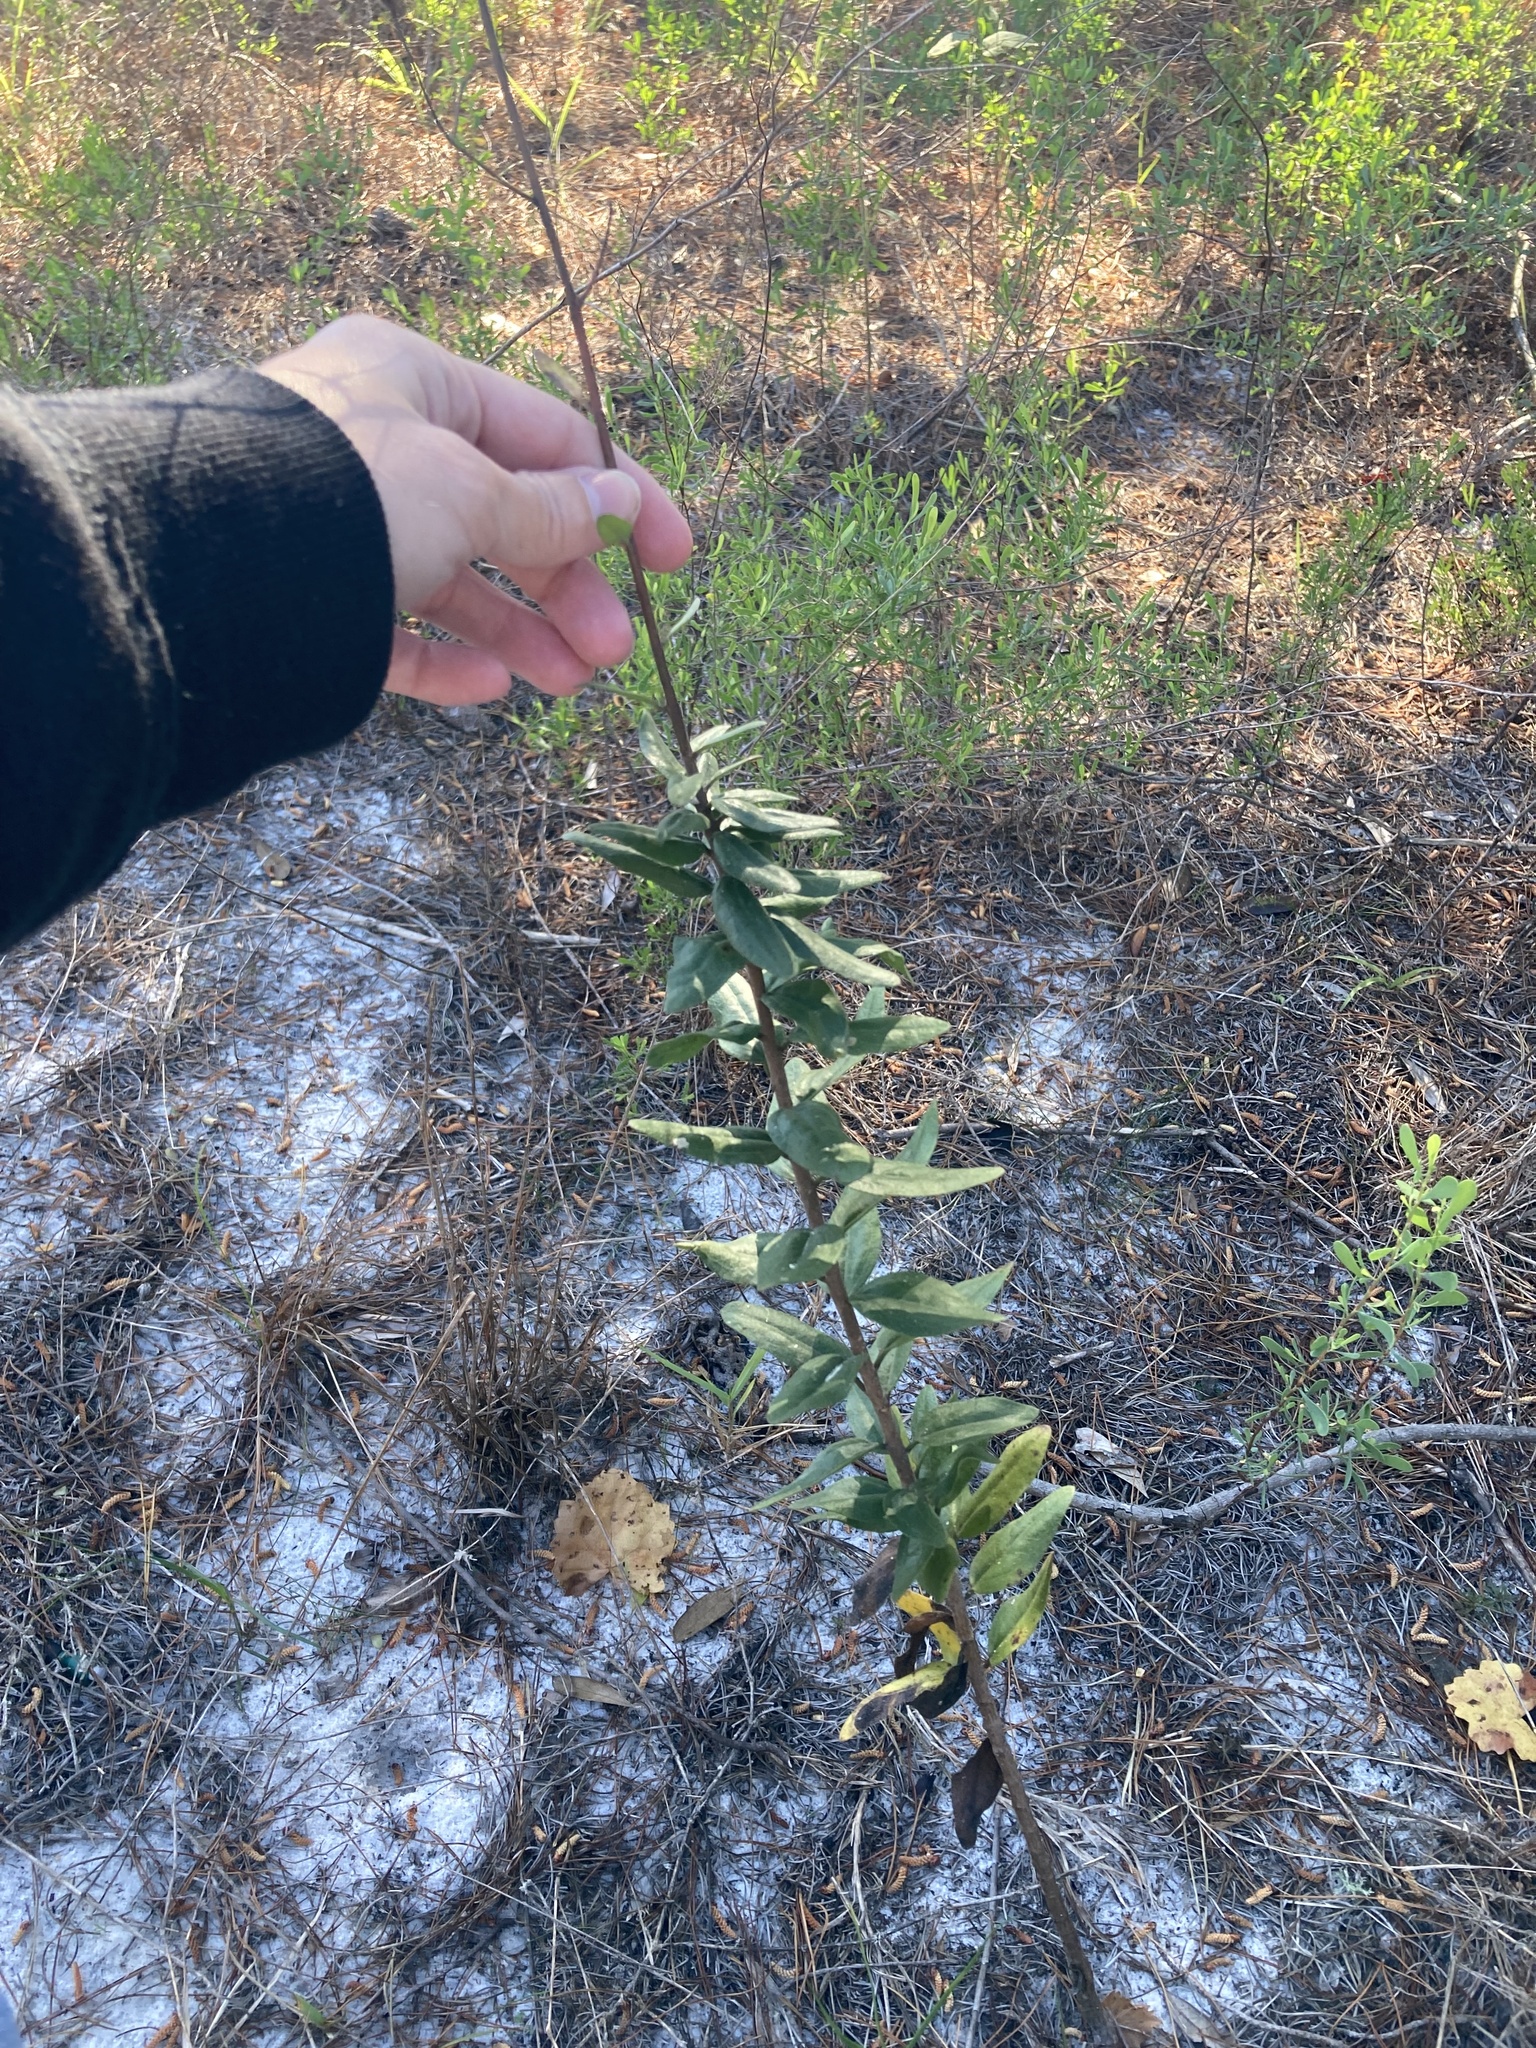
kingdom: Plantae
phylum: Tracheophyta
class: Magnoliopsida
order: Asterales
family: Asteraceae
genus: Palafoxia
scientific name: Palafoxia feayi
